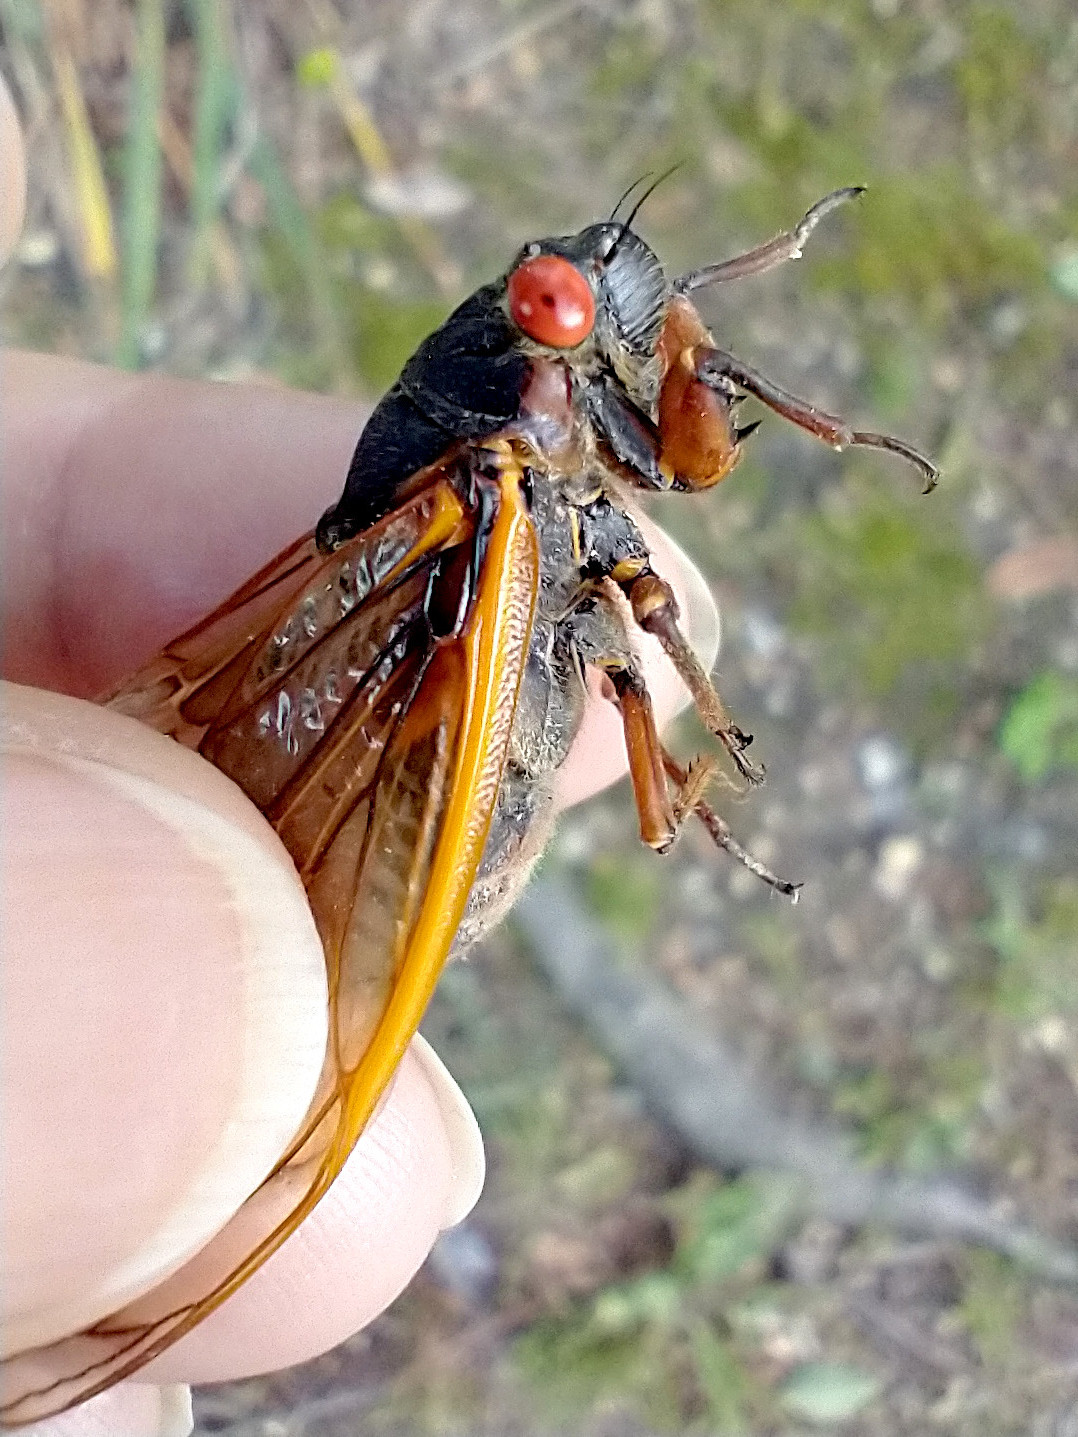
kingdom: Fungi
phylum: Entomophthoromycota
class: Entomophthoromycetes
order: Entomophthorales
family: Entomophthoraceae
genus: Massospora
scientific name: Massospora cicadina
